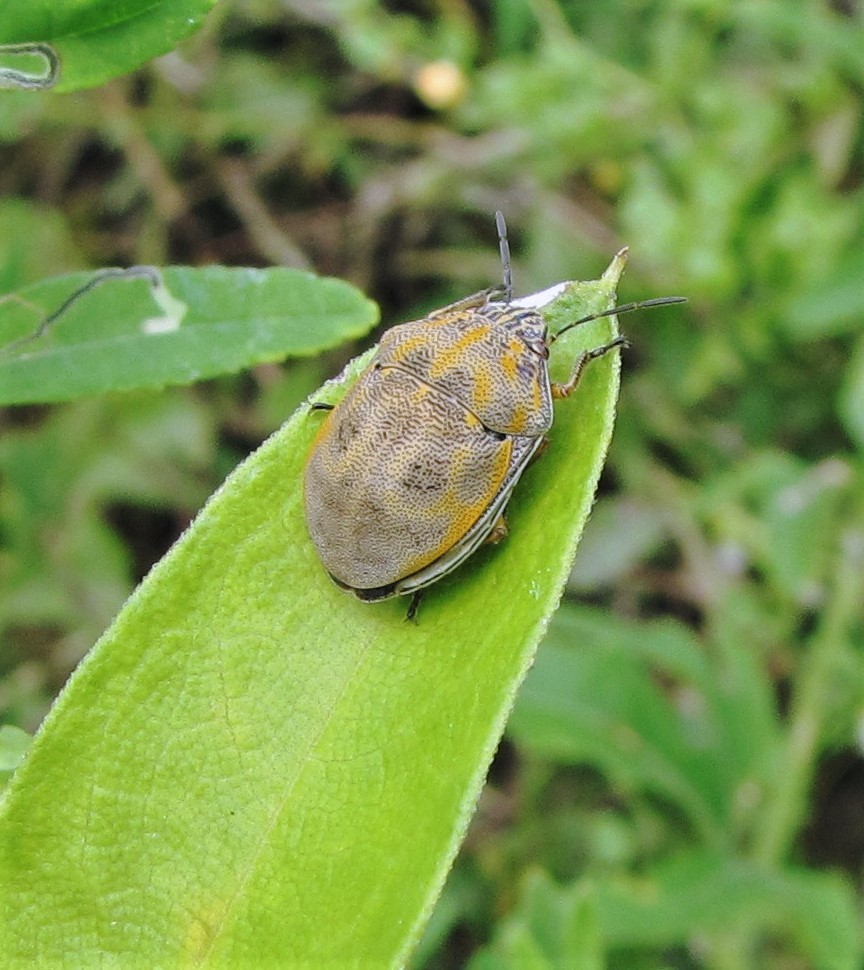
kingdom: Animalia
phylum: Arthropoda
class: Insecta
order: Hemiptera
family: Scutelleridae
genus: Orsilochides
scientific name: Orsilochides
